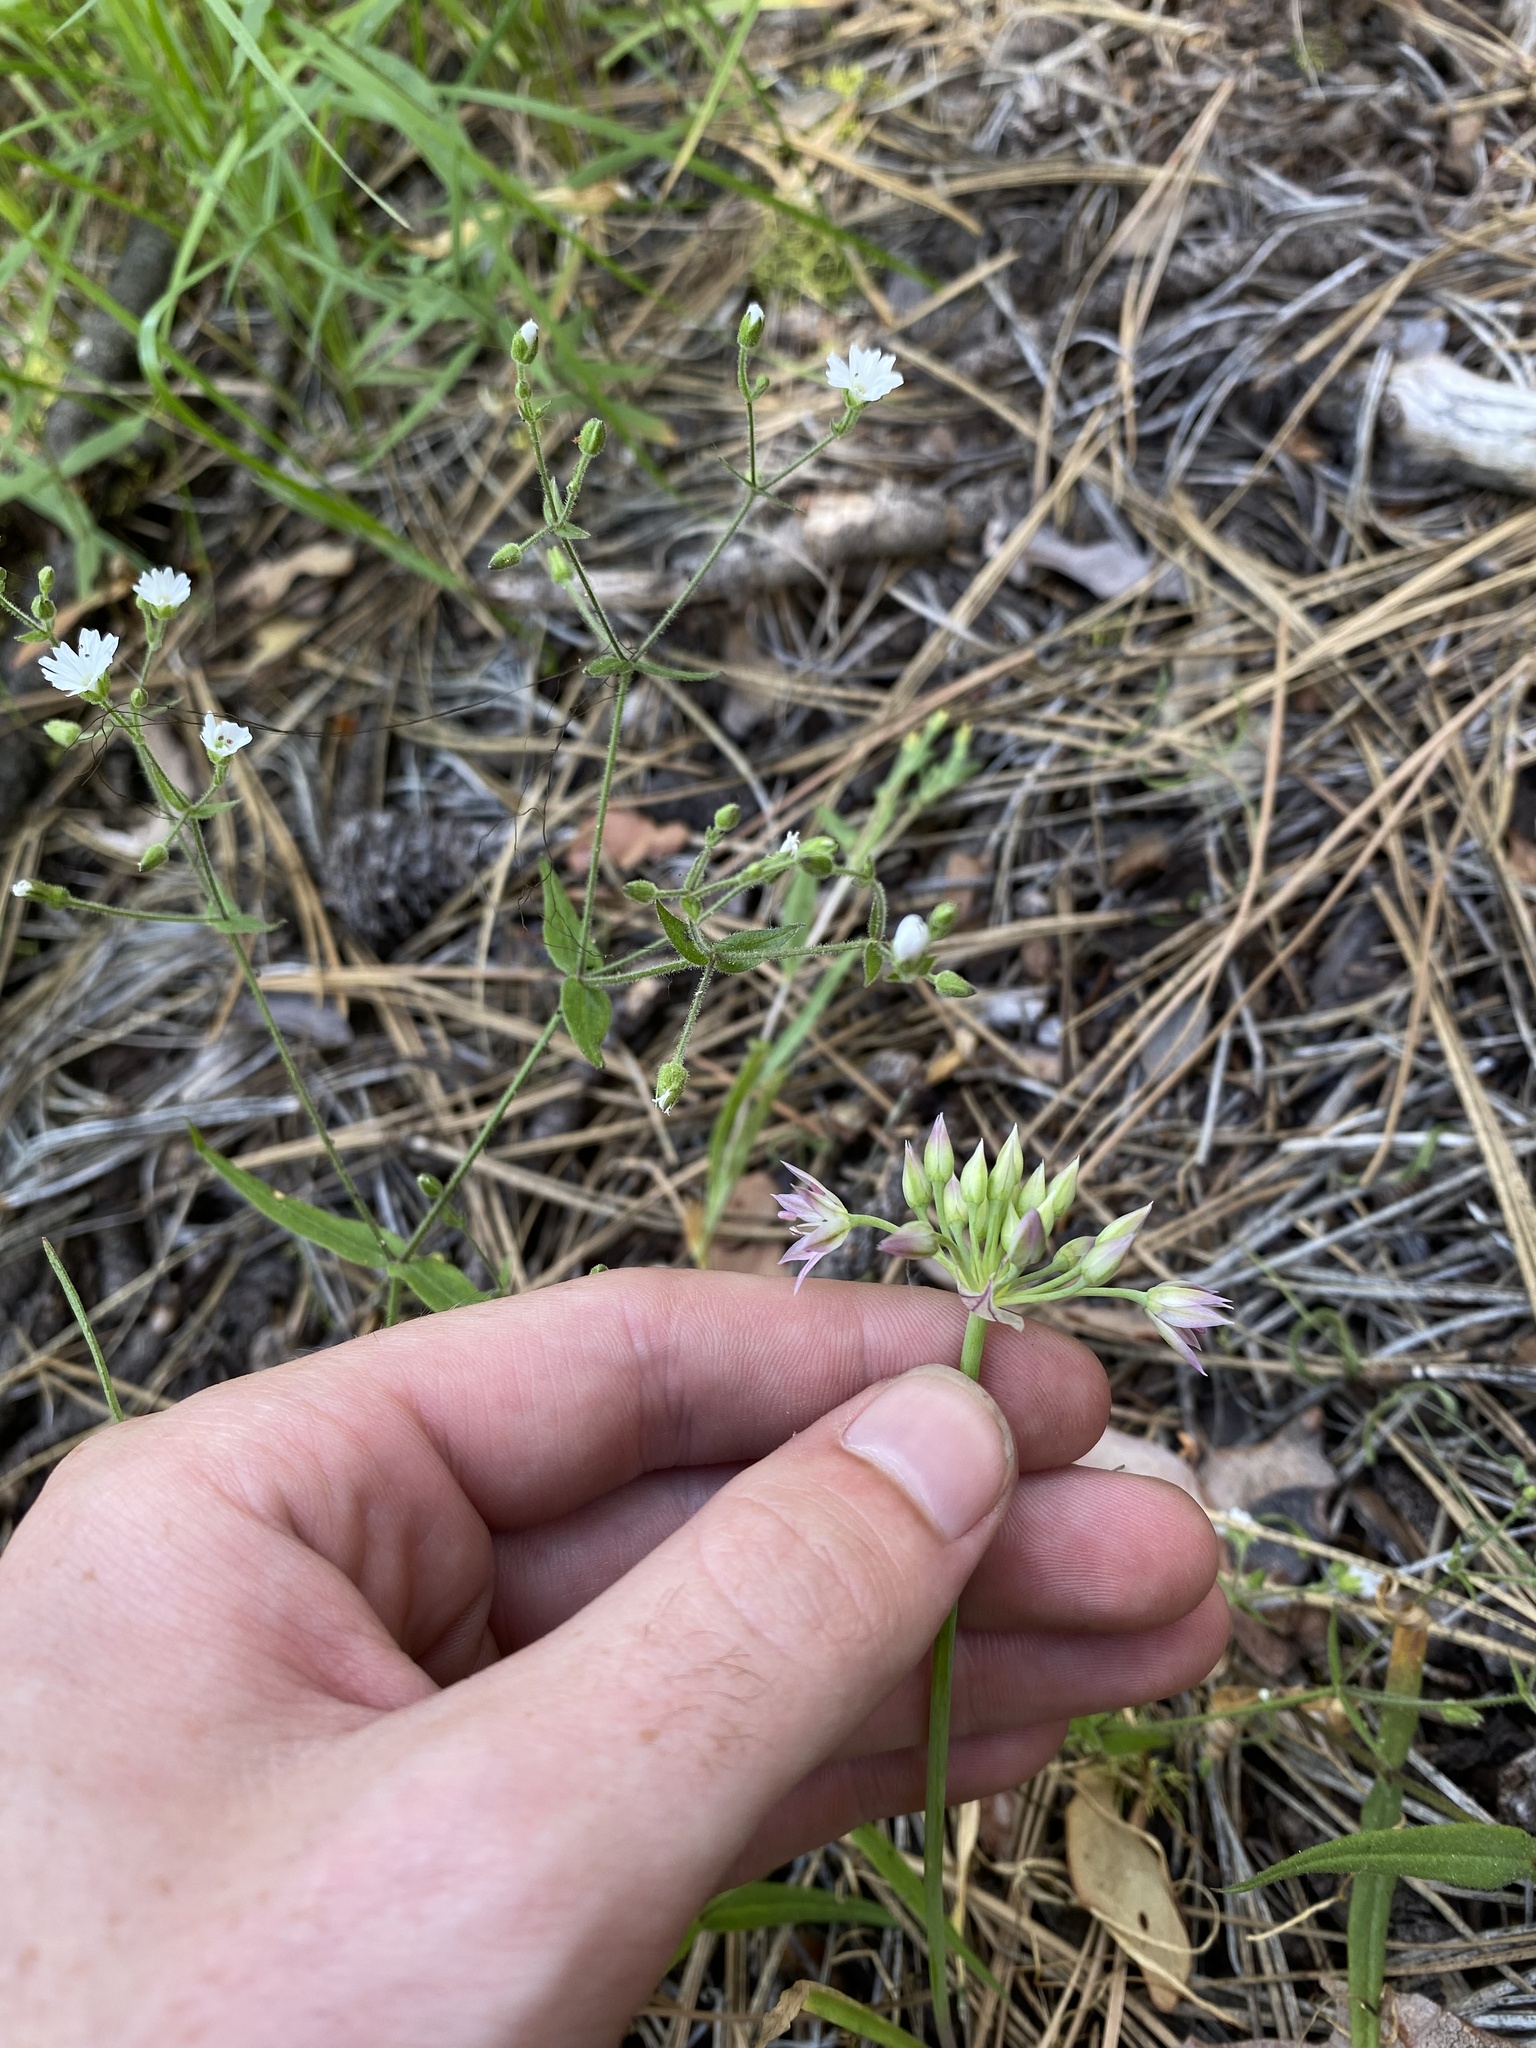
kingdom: Plantae
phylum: Tracheophyta
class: Liliopsida
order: Asparagales
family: Amaryllidaceae
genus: Allium
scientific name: Allium campanulatum
